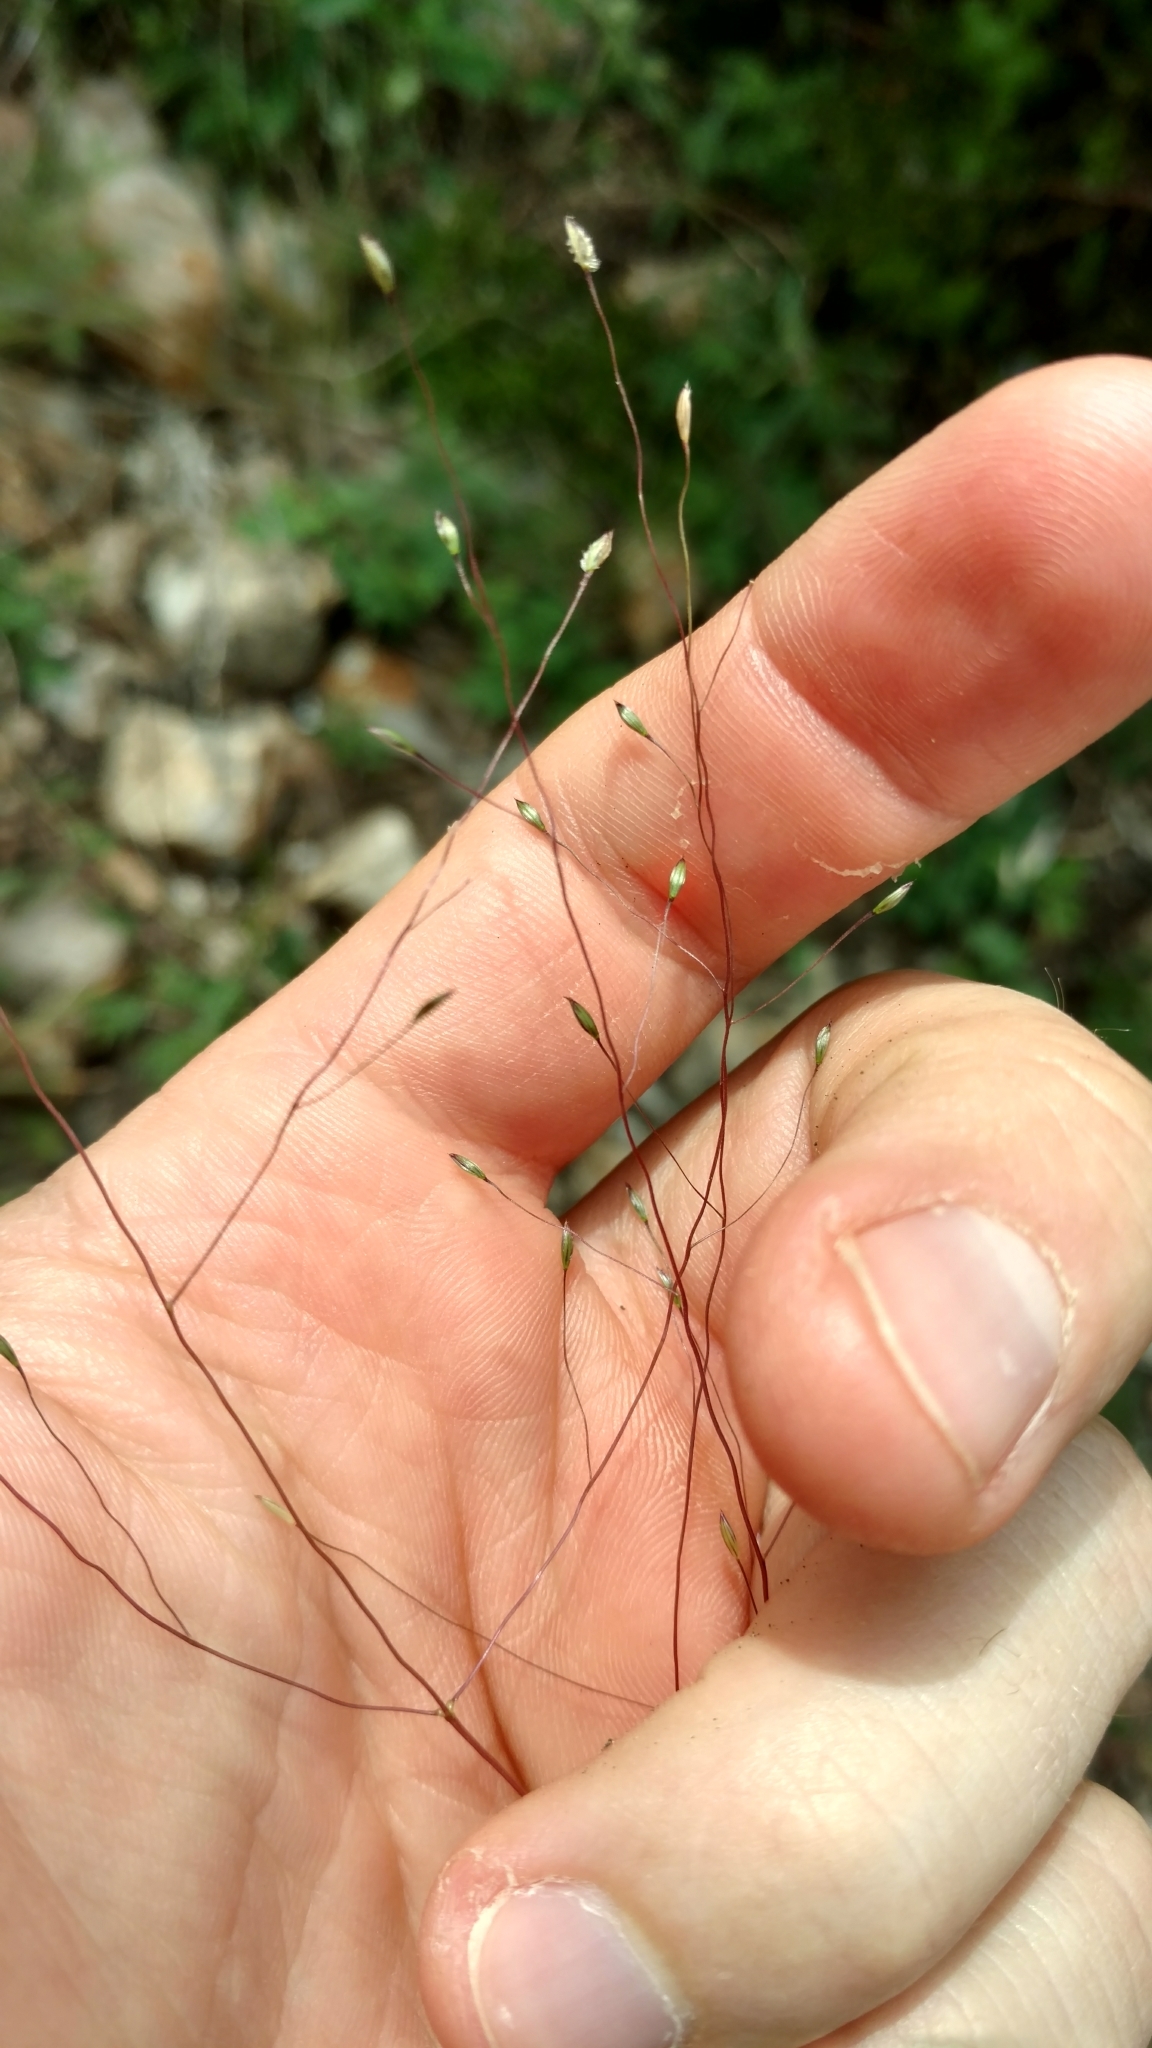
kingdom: Plantae
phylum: Tracheophyta
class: Liliopsida
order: Poales
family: Poaceae
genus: Digitaria
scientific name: Digitaria cognata
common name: Fall witchgrass
